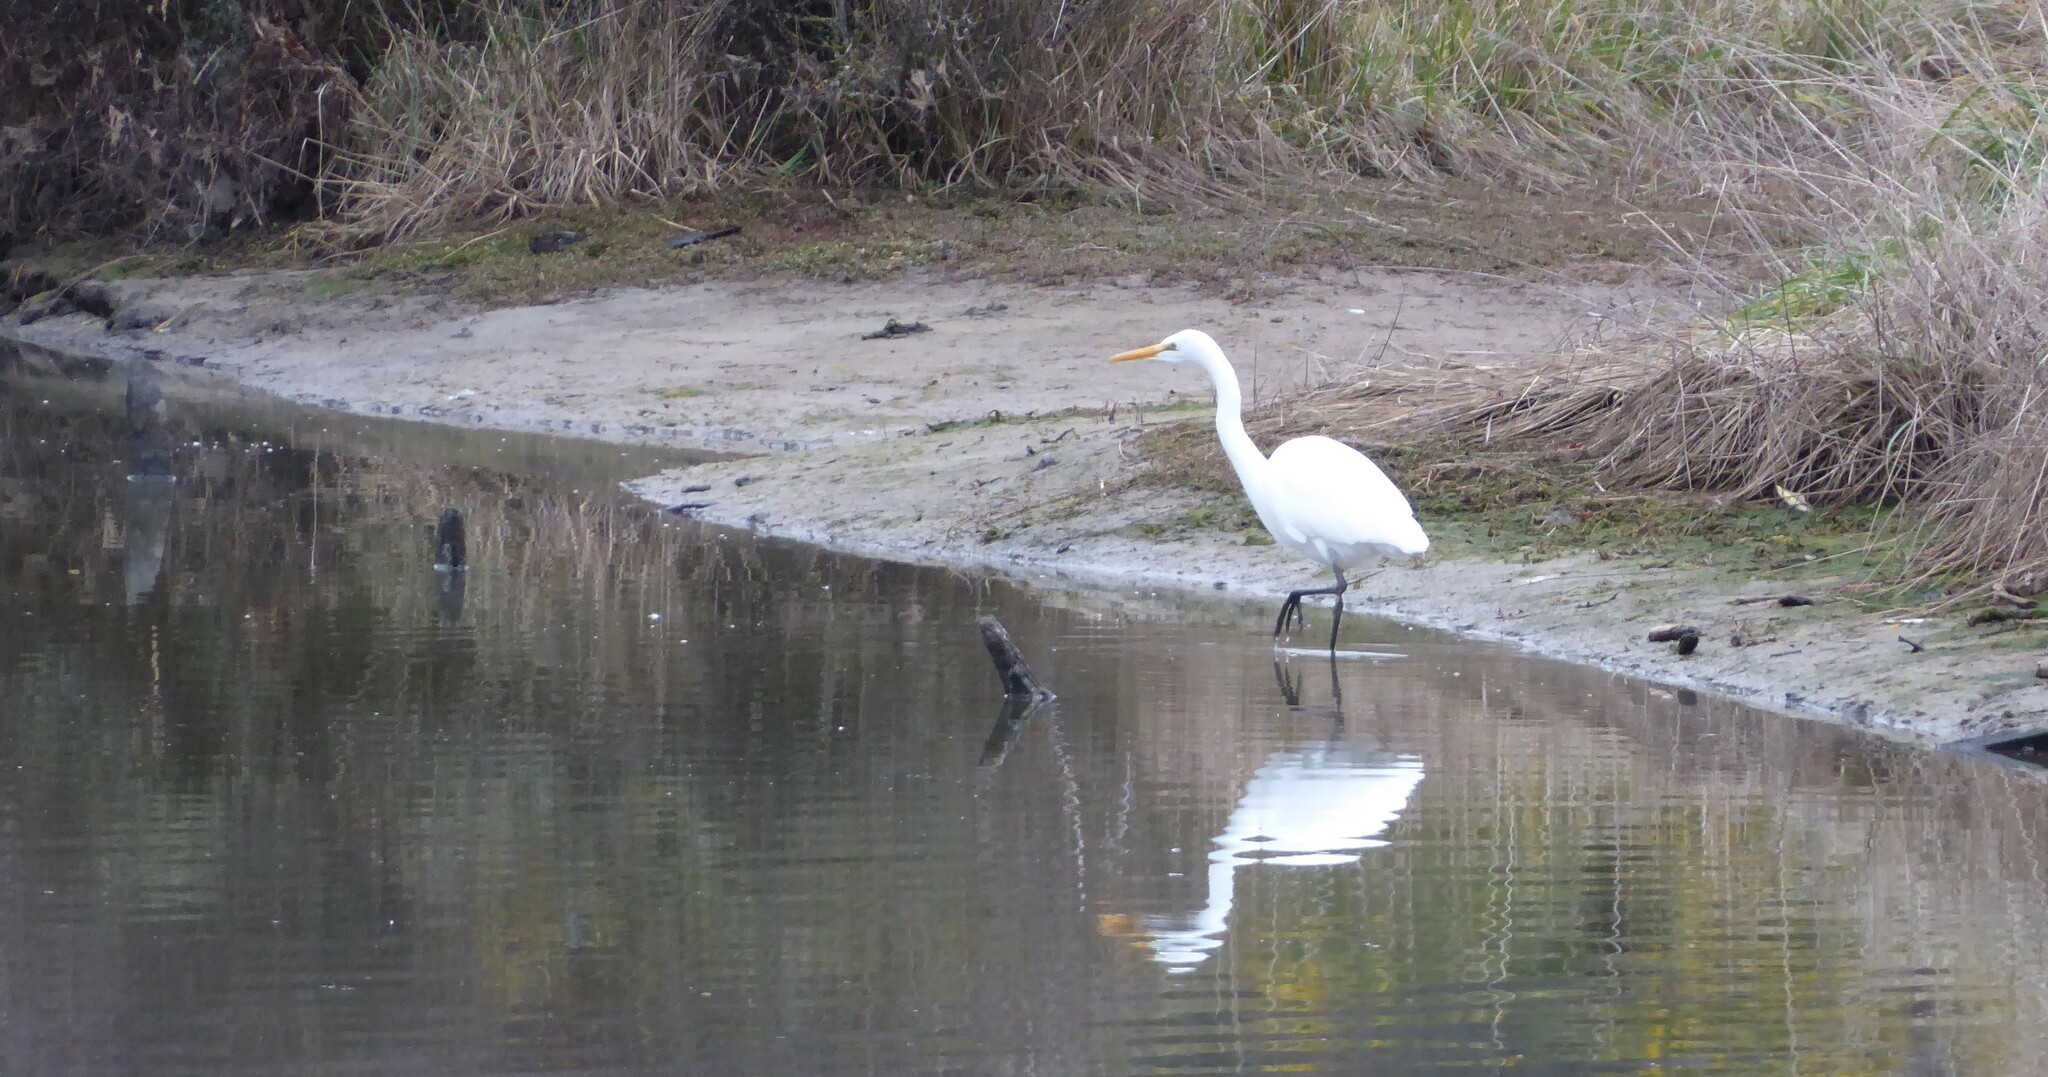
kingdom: Animalia
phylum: Chordata
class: Aves
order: Pelecaniformes
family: Ardeidae
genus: Ardea
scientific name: Ardea modesta
